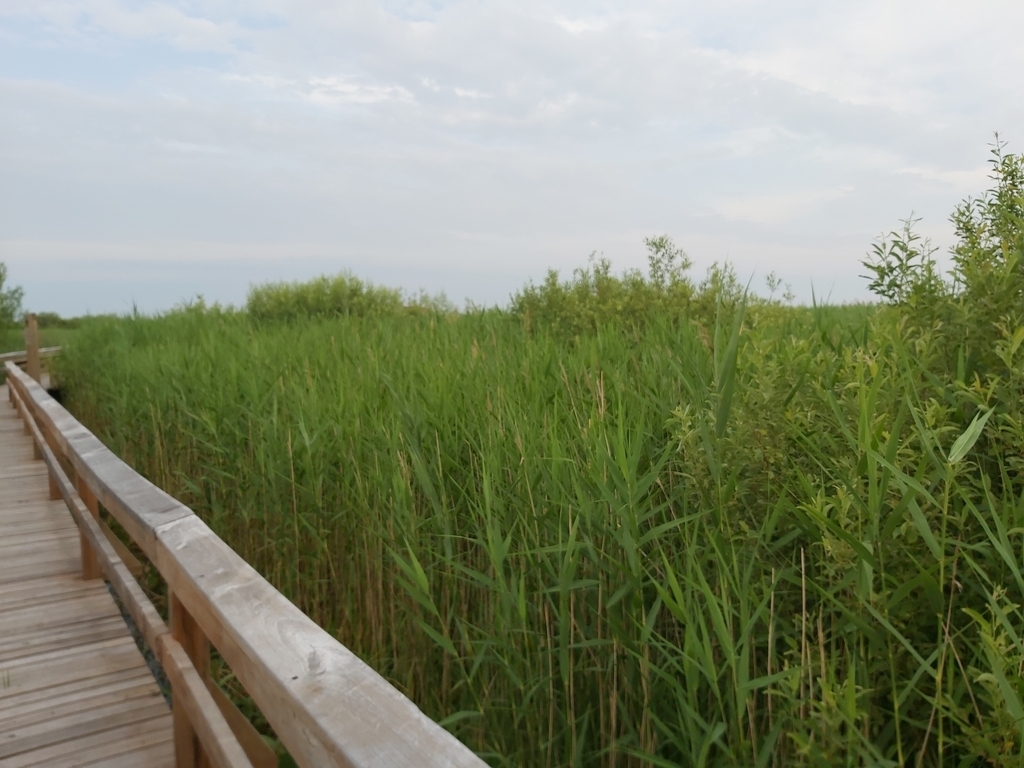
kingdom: Animalia
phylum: Chordata
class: Aves
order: Passeriformes
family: Acrocephalidae
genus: Acrocephalus
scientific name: Acrocephalus scirpaceus
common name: Eurasian reed warbler
